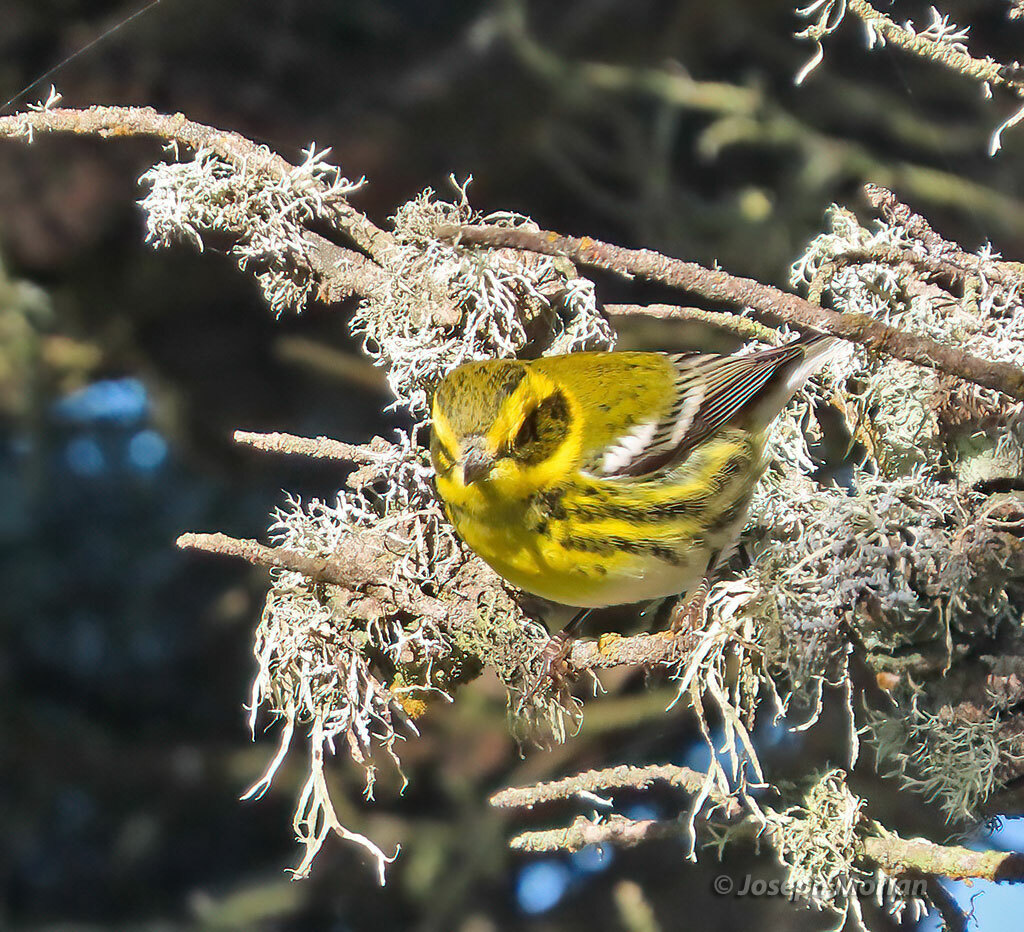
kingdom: Animalia
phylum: Chordata
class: Aves
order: Passeriformes
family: Parulidae
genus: Setophaga
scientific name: Setophaga townsendi
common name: Townsend's warbler
